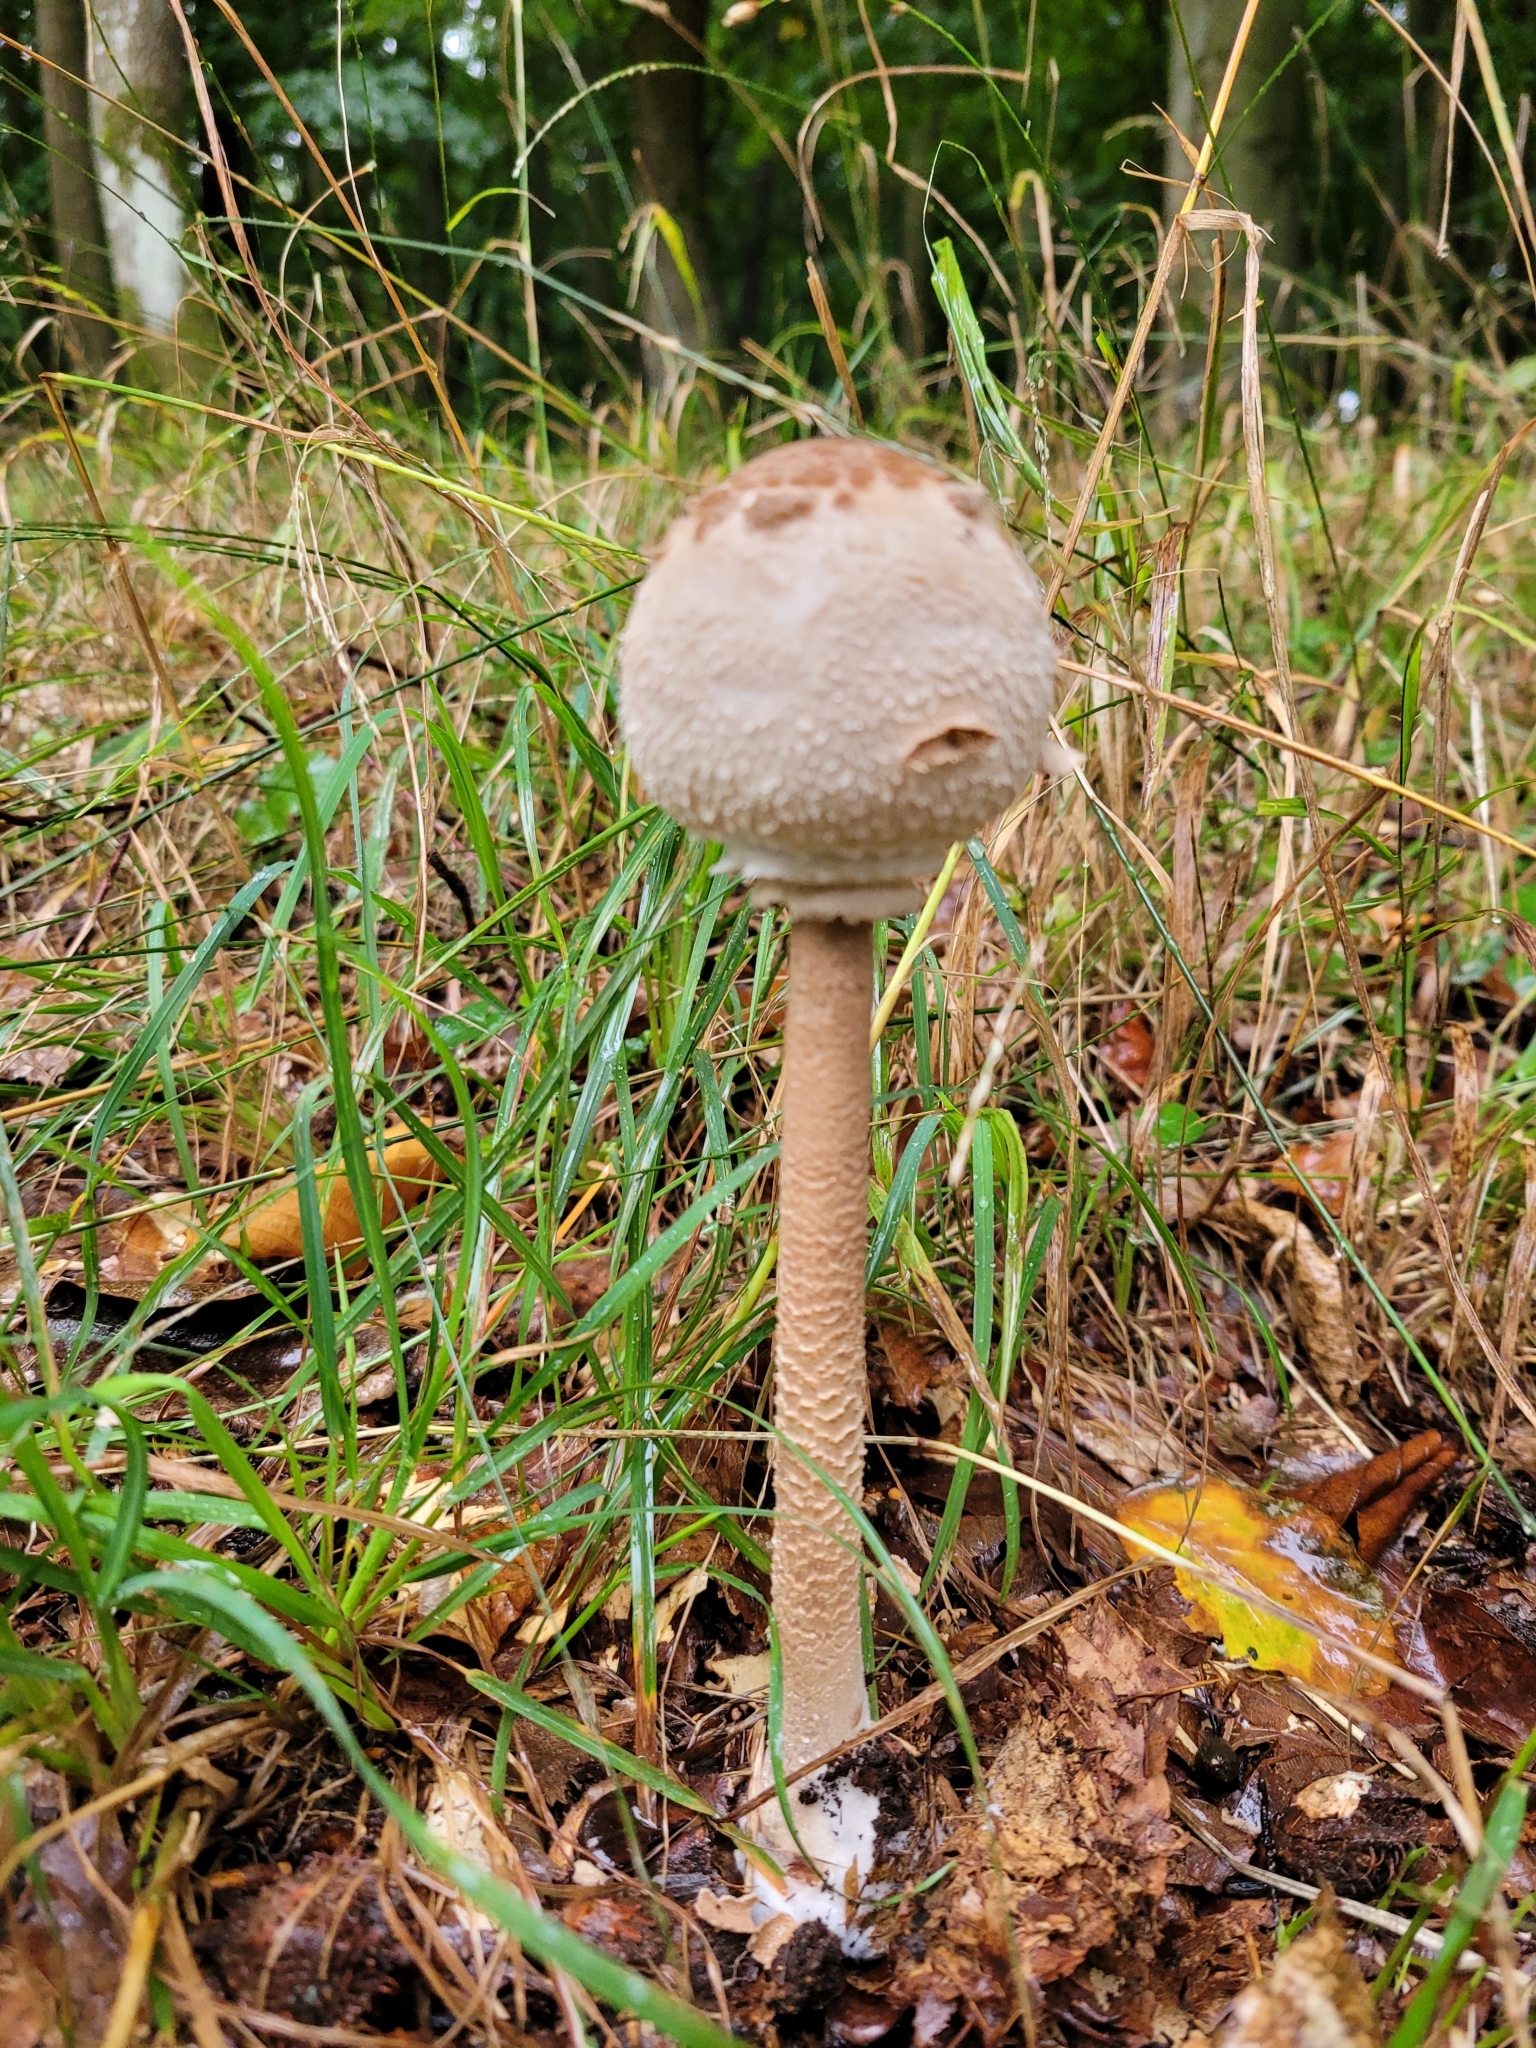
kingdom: Fungi
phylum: Basidiomycota
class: Agaricomycetes
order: Agaricales
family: Agaricaceae
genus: Macrolepiota
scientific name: Macrolepiota procera
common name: Parasol
